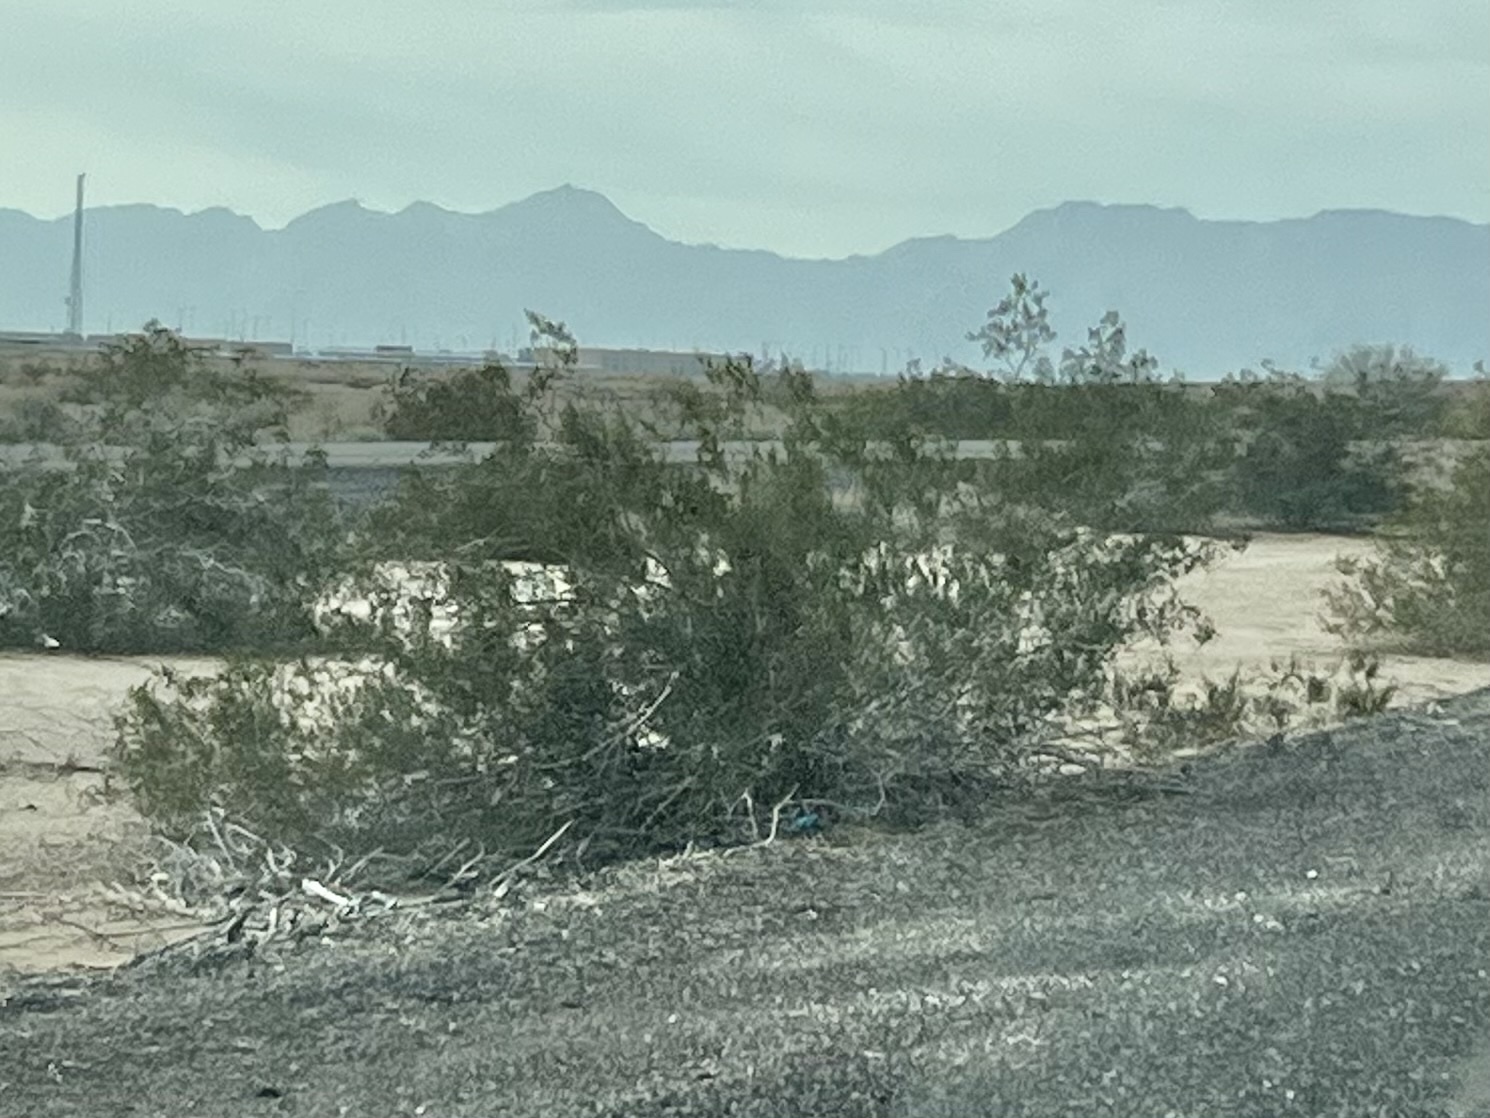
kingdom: Plantae
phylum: Tracheophyta
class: Magnoliopsida
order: Zygophyllales
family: Zygophyllaceae
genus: Larrea
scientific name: Larrea tridentata
